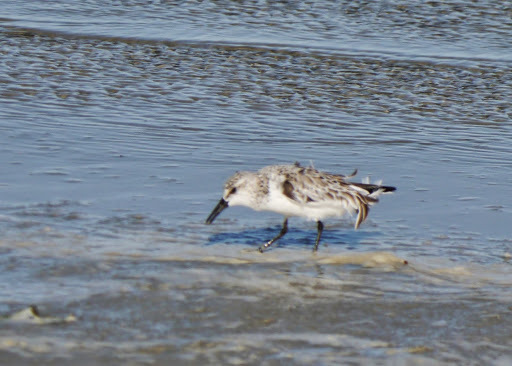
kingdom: Animalia
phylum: Chordata
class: Aves
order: Charadriiformes
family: Scolopacidae
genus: Calidris
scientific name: Calidris alba
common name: Sanderling
